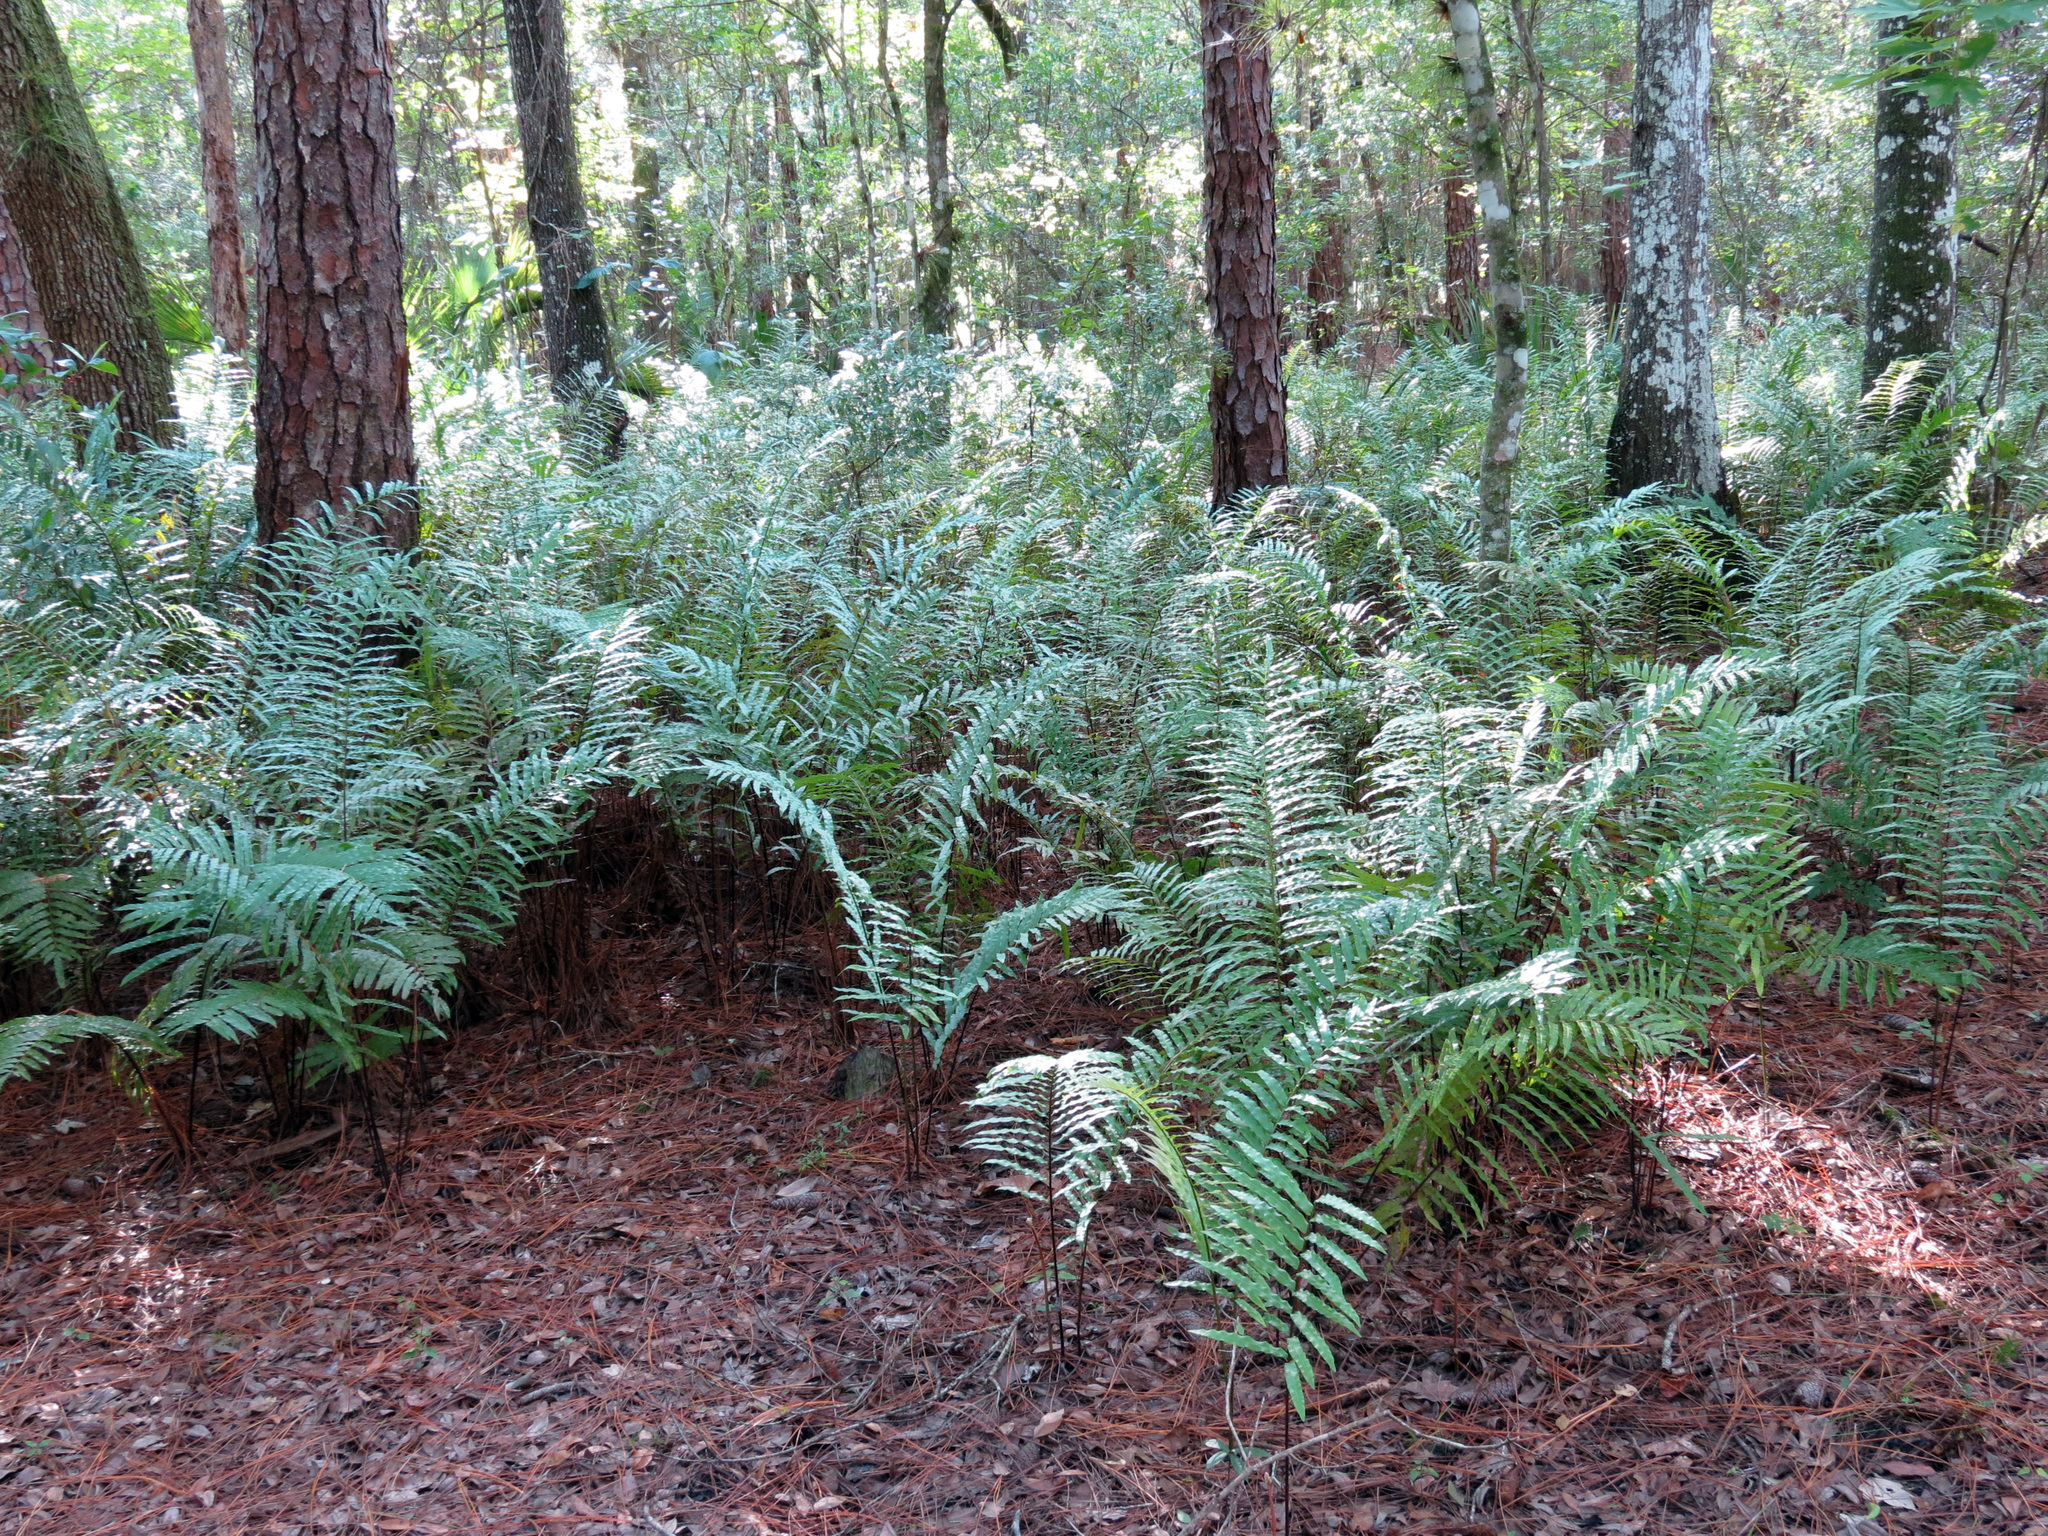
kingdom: Plantae
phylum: Tracheophyta
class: Polypodiopsida
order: Polypodiales
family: Blechnaceae
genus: Telmatoblechnum
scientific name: Telmatoblechnum serrulatum
